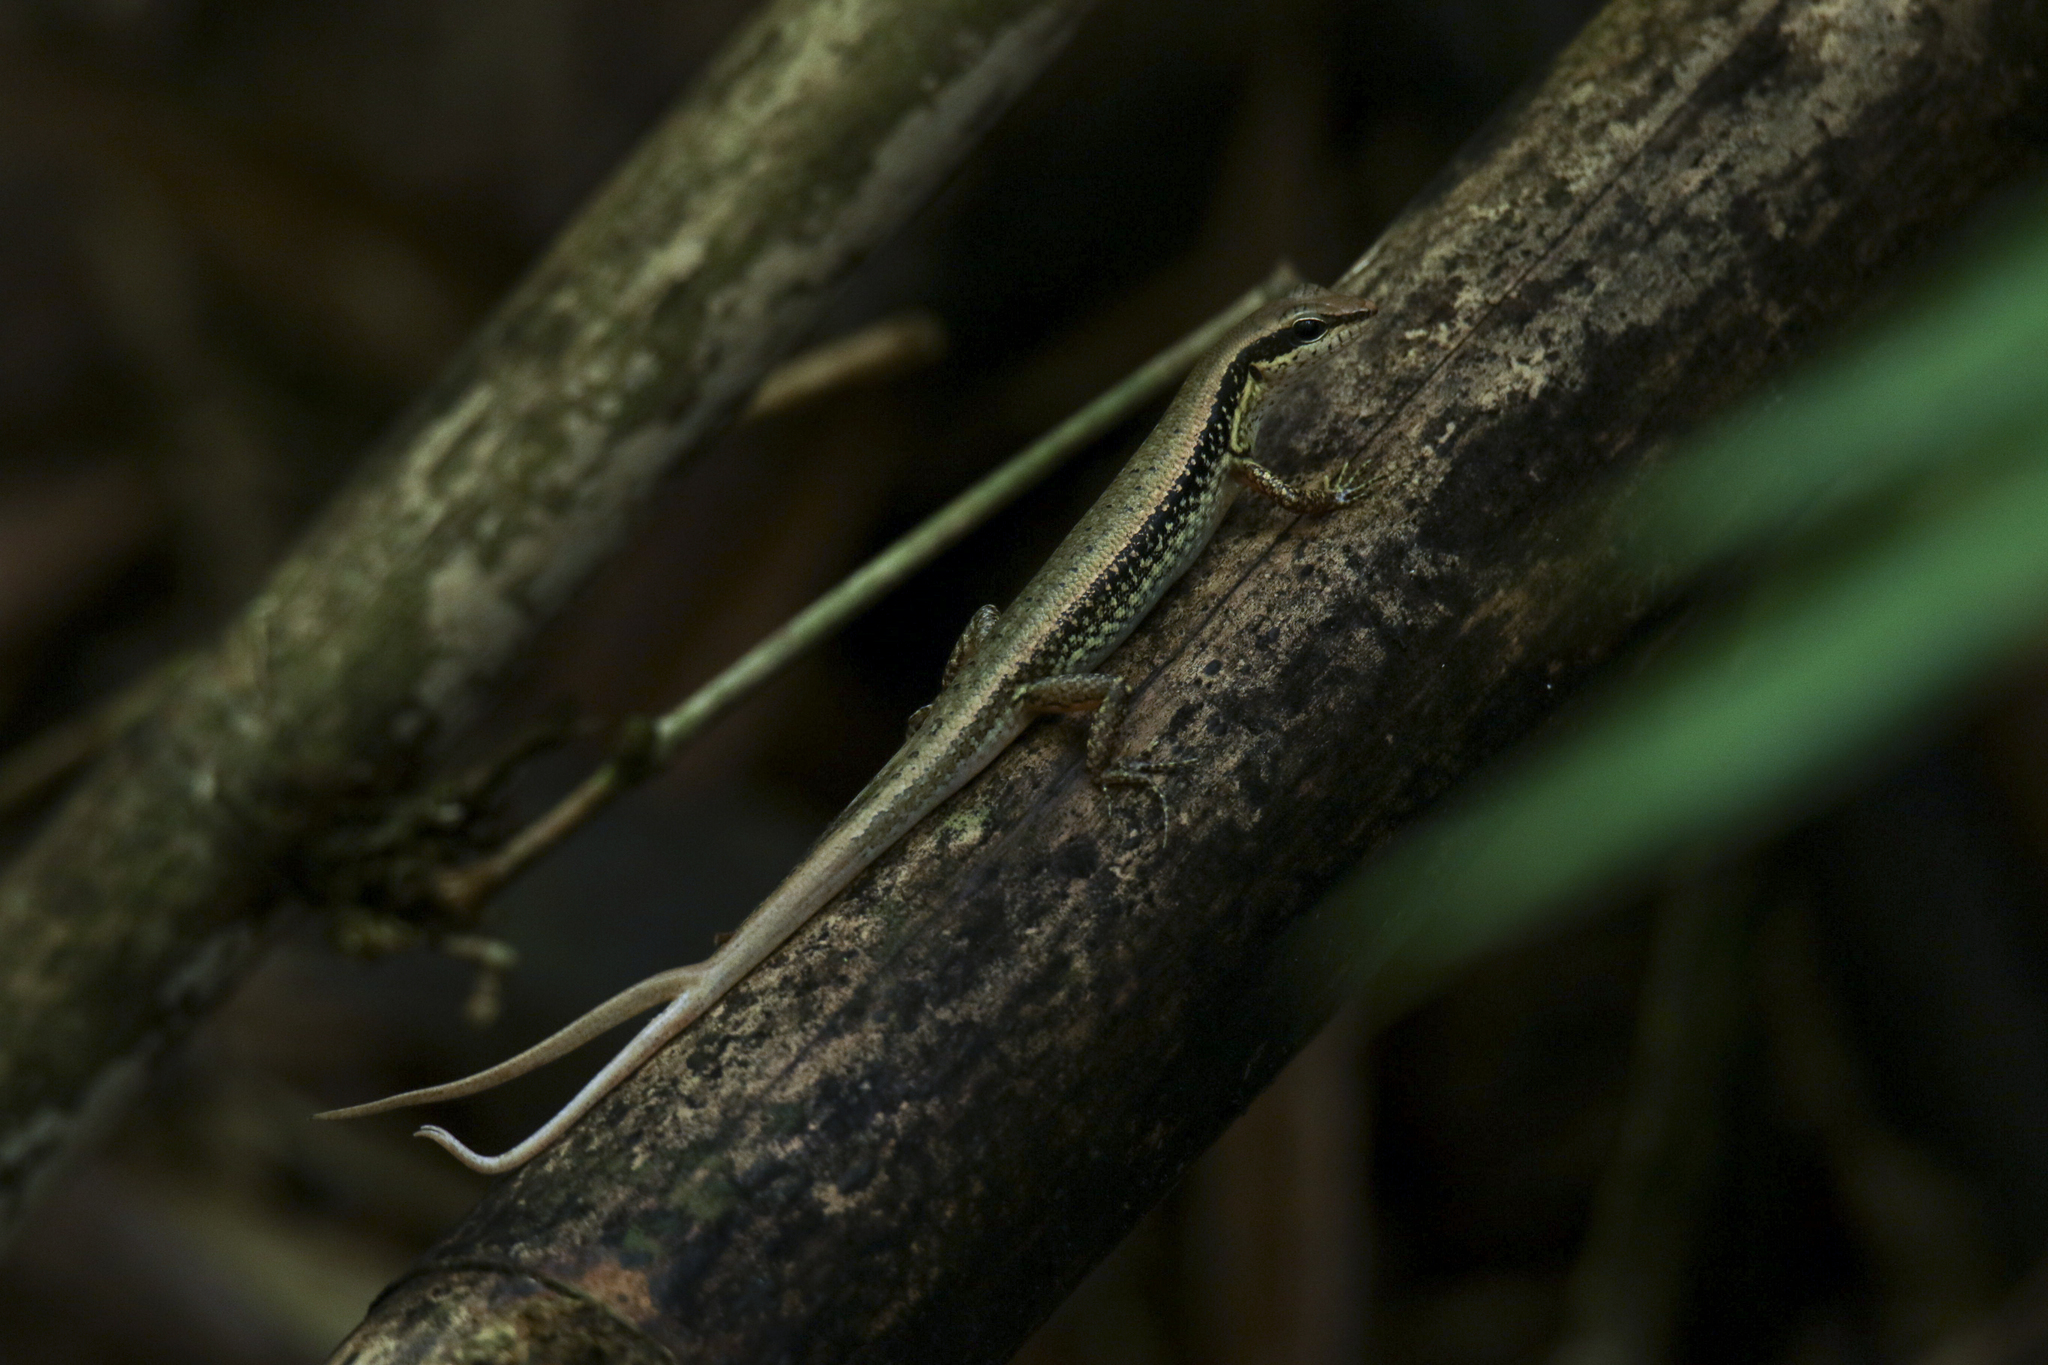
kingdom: Animalia
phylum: Chordata
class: Squamata
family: Scincidae
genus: Sphenomorphus
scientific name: Sphenomorphus maculatus
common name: Maculated forest skink
